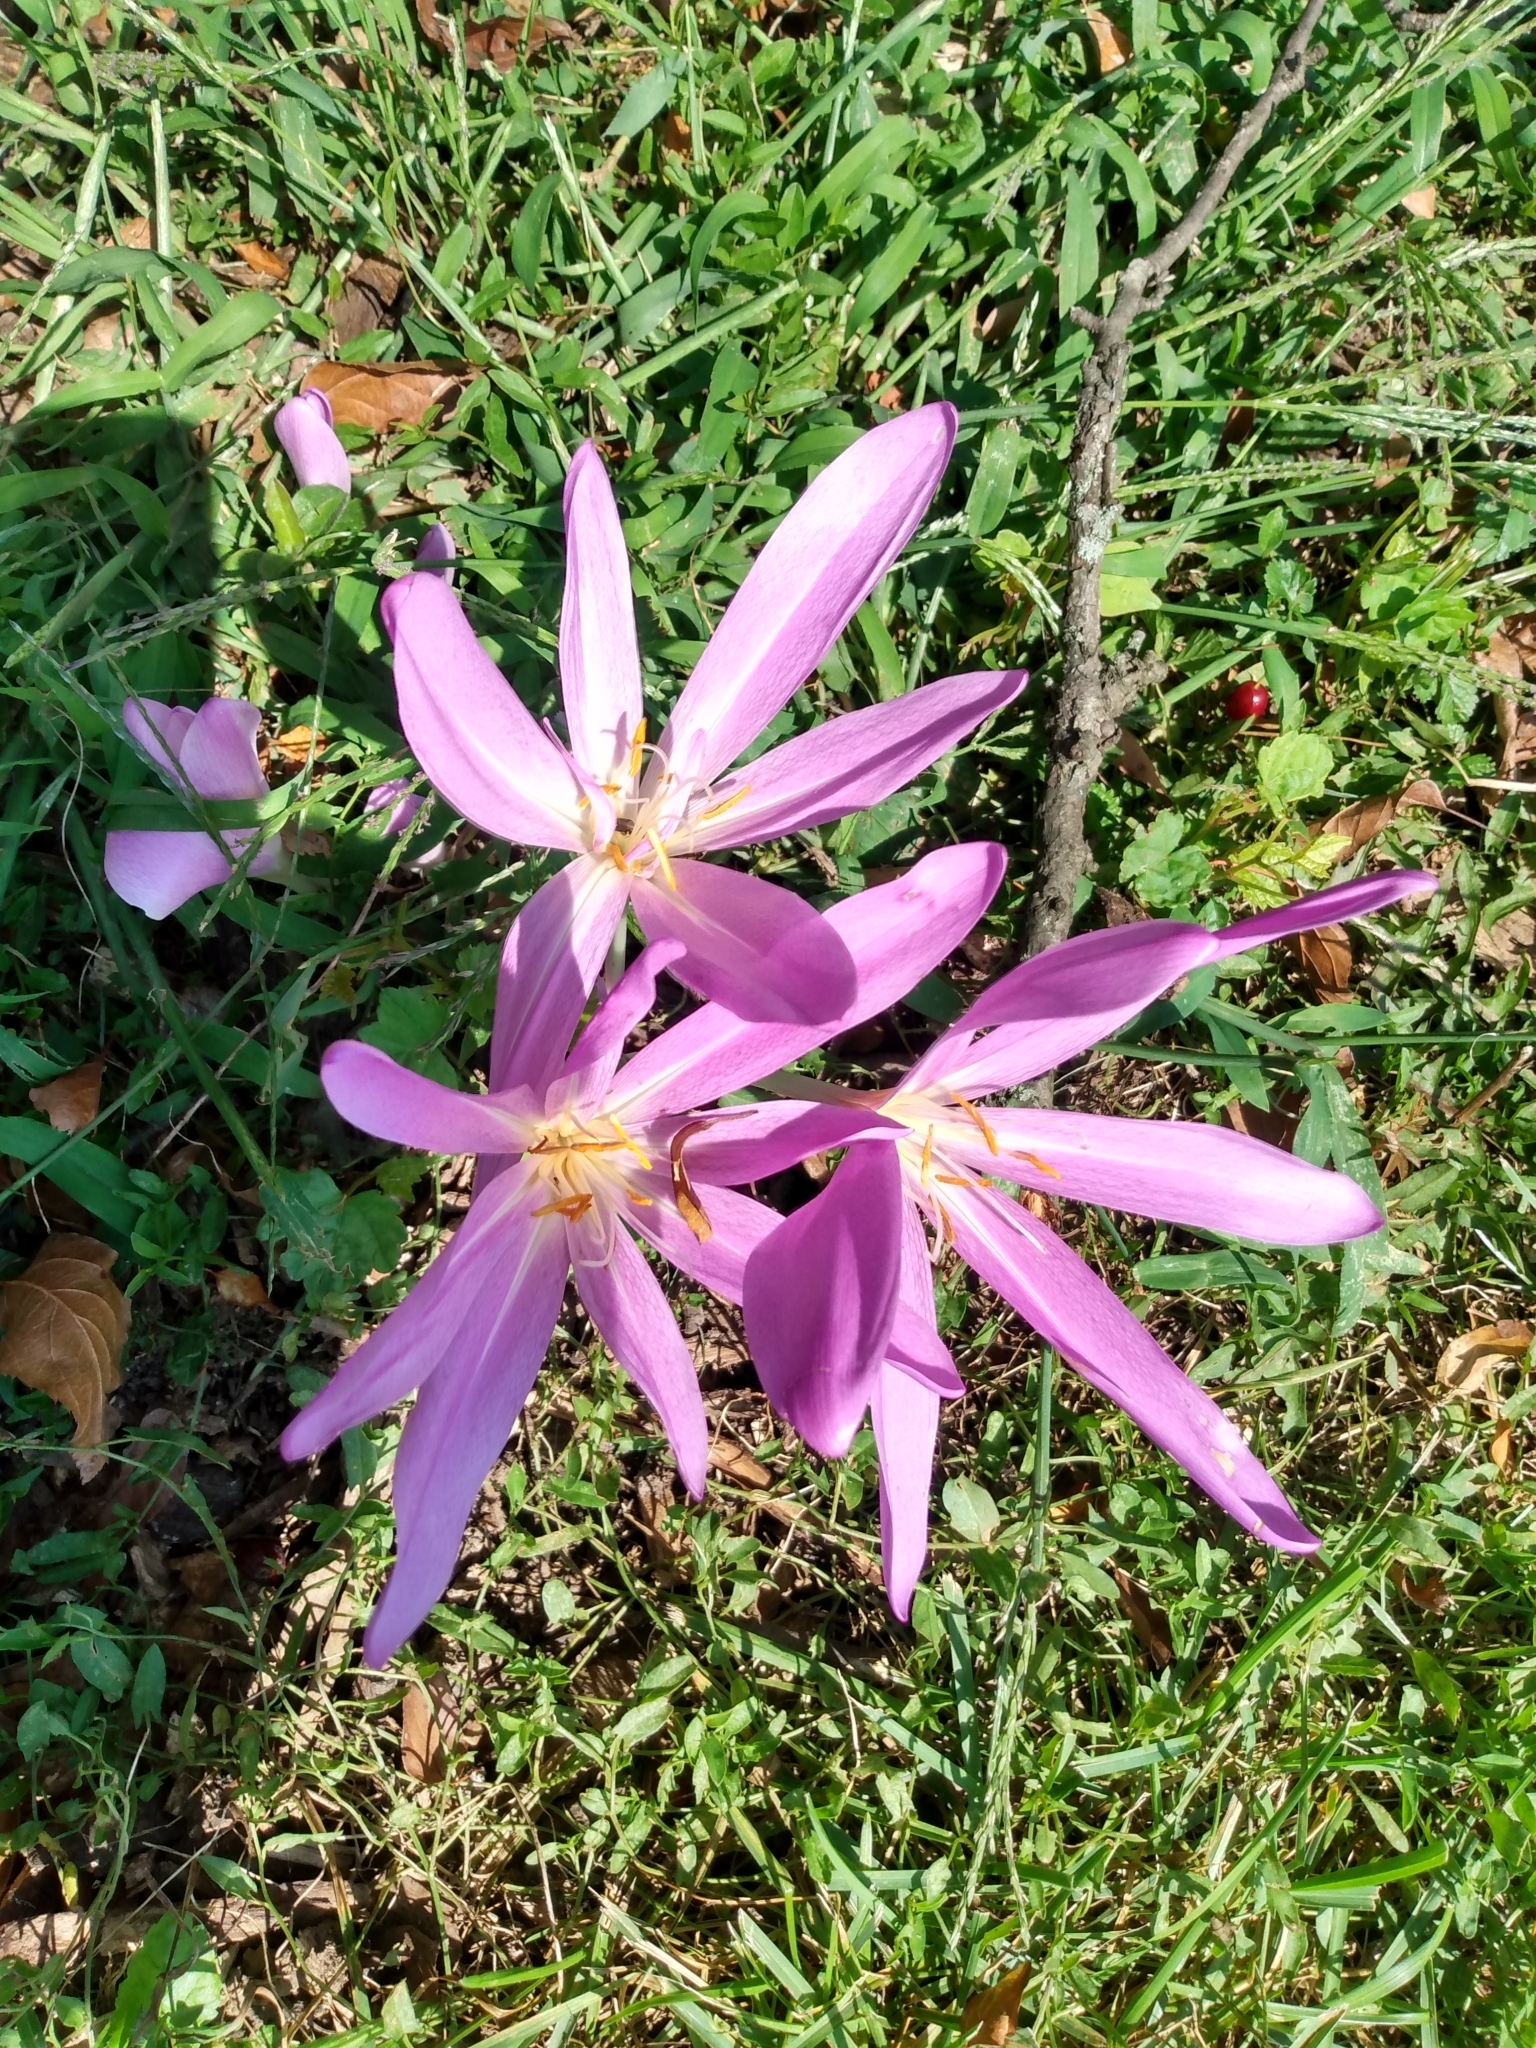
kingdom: Plantae
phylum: Tracheophyta
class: Liliopsida
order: Liliales
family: Colchicaceae
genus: Colchicum
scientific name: Colchicum autumnale
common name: Autumn crocus
